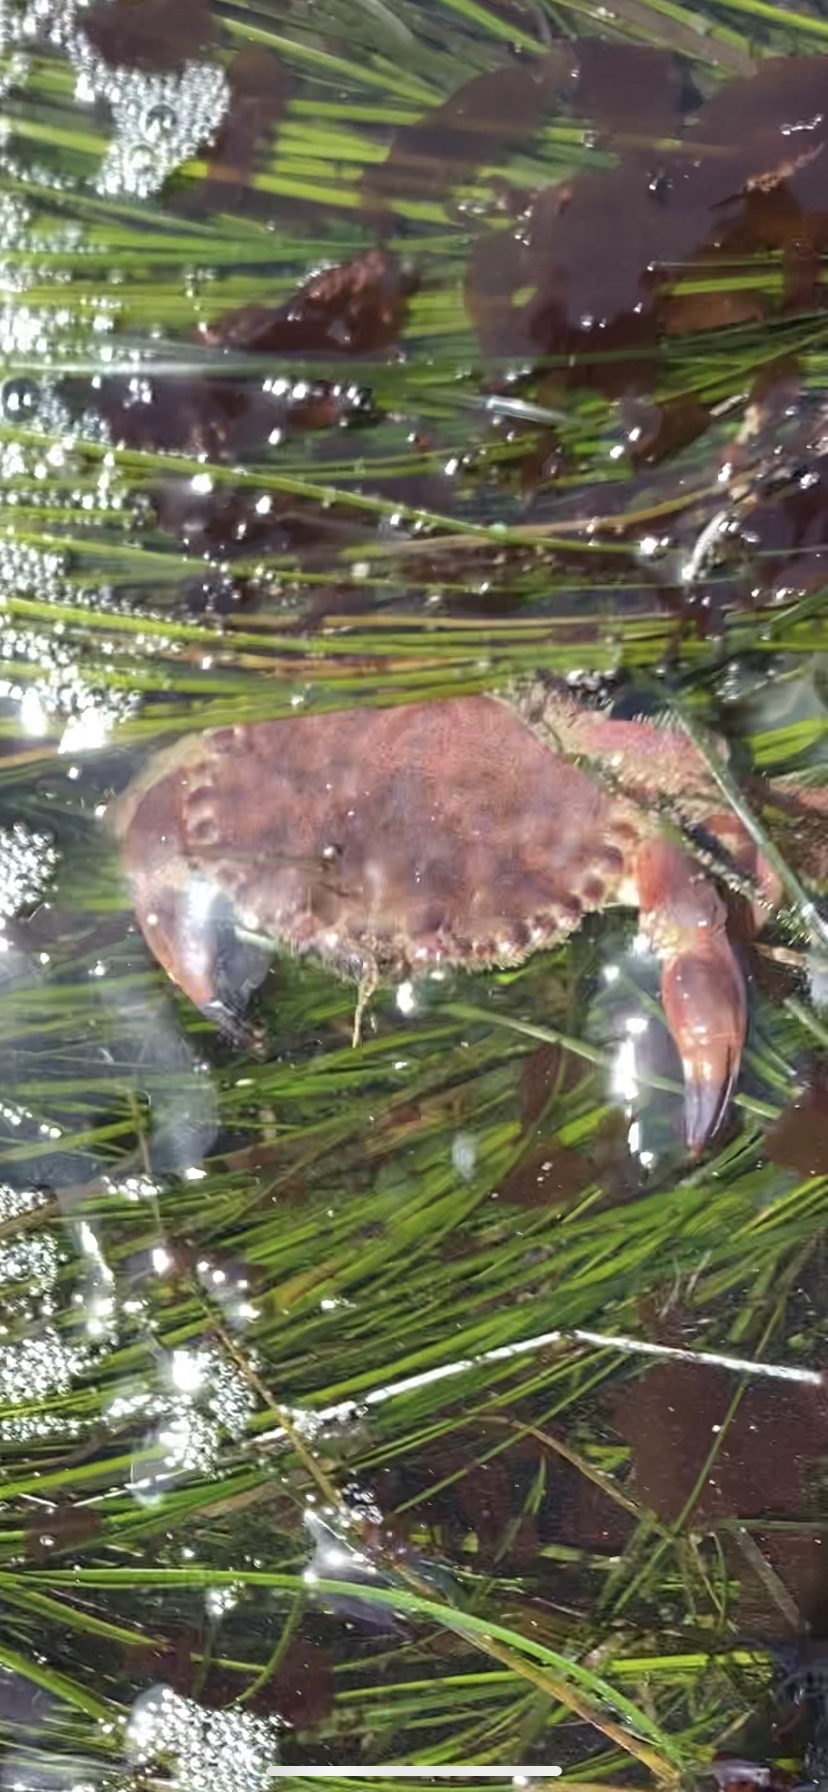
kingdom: Animalia
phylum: Arthropoda
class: Malacostraca
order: Decapoda
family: Cancridae
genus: Romaleon
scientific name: Romaleon antennarium
